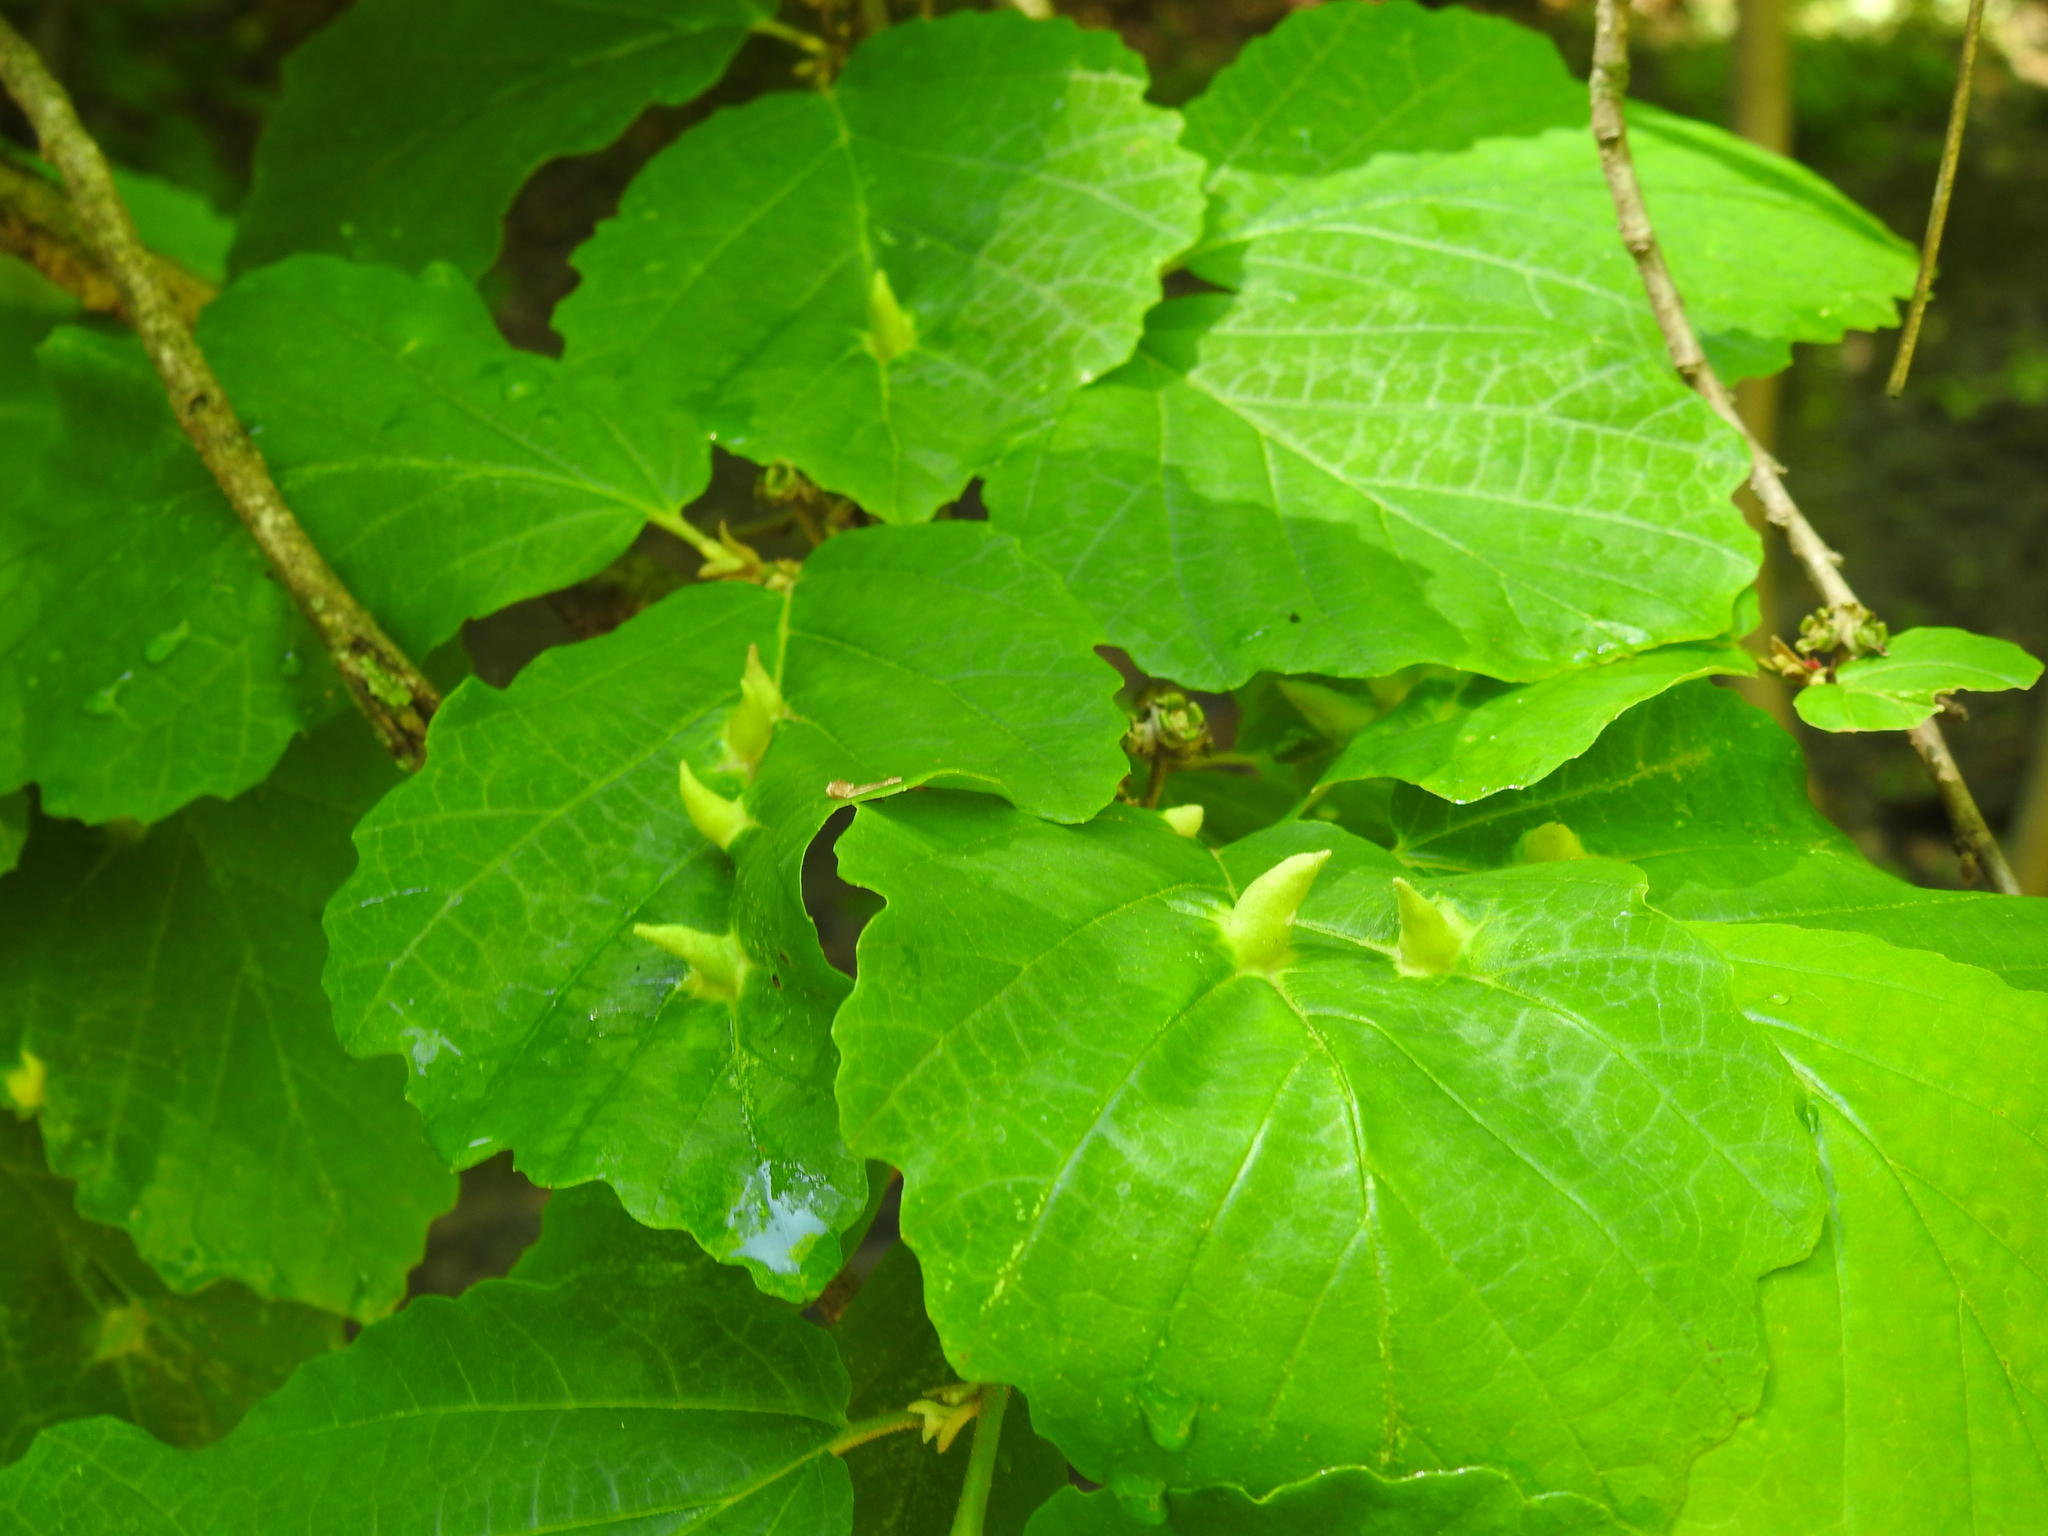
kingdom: Animalia
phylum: Arthropoda
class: Insecta
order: Hemiptera
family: Aphididae
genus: Hormaphis
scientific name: Hormaphis hamamelidis
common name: Witch-hazel cone gall aphid
